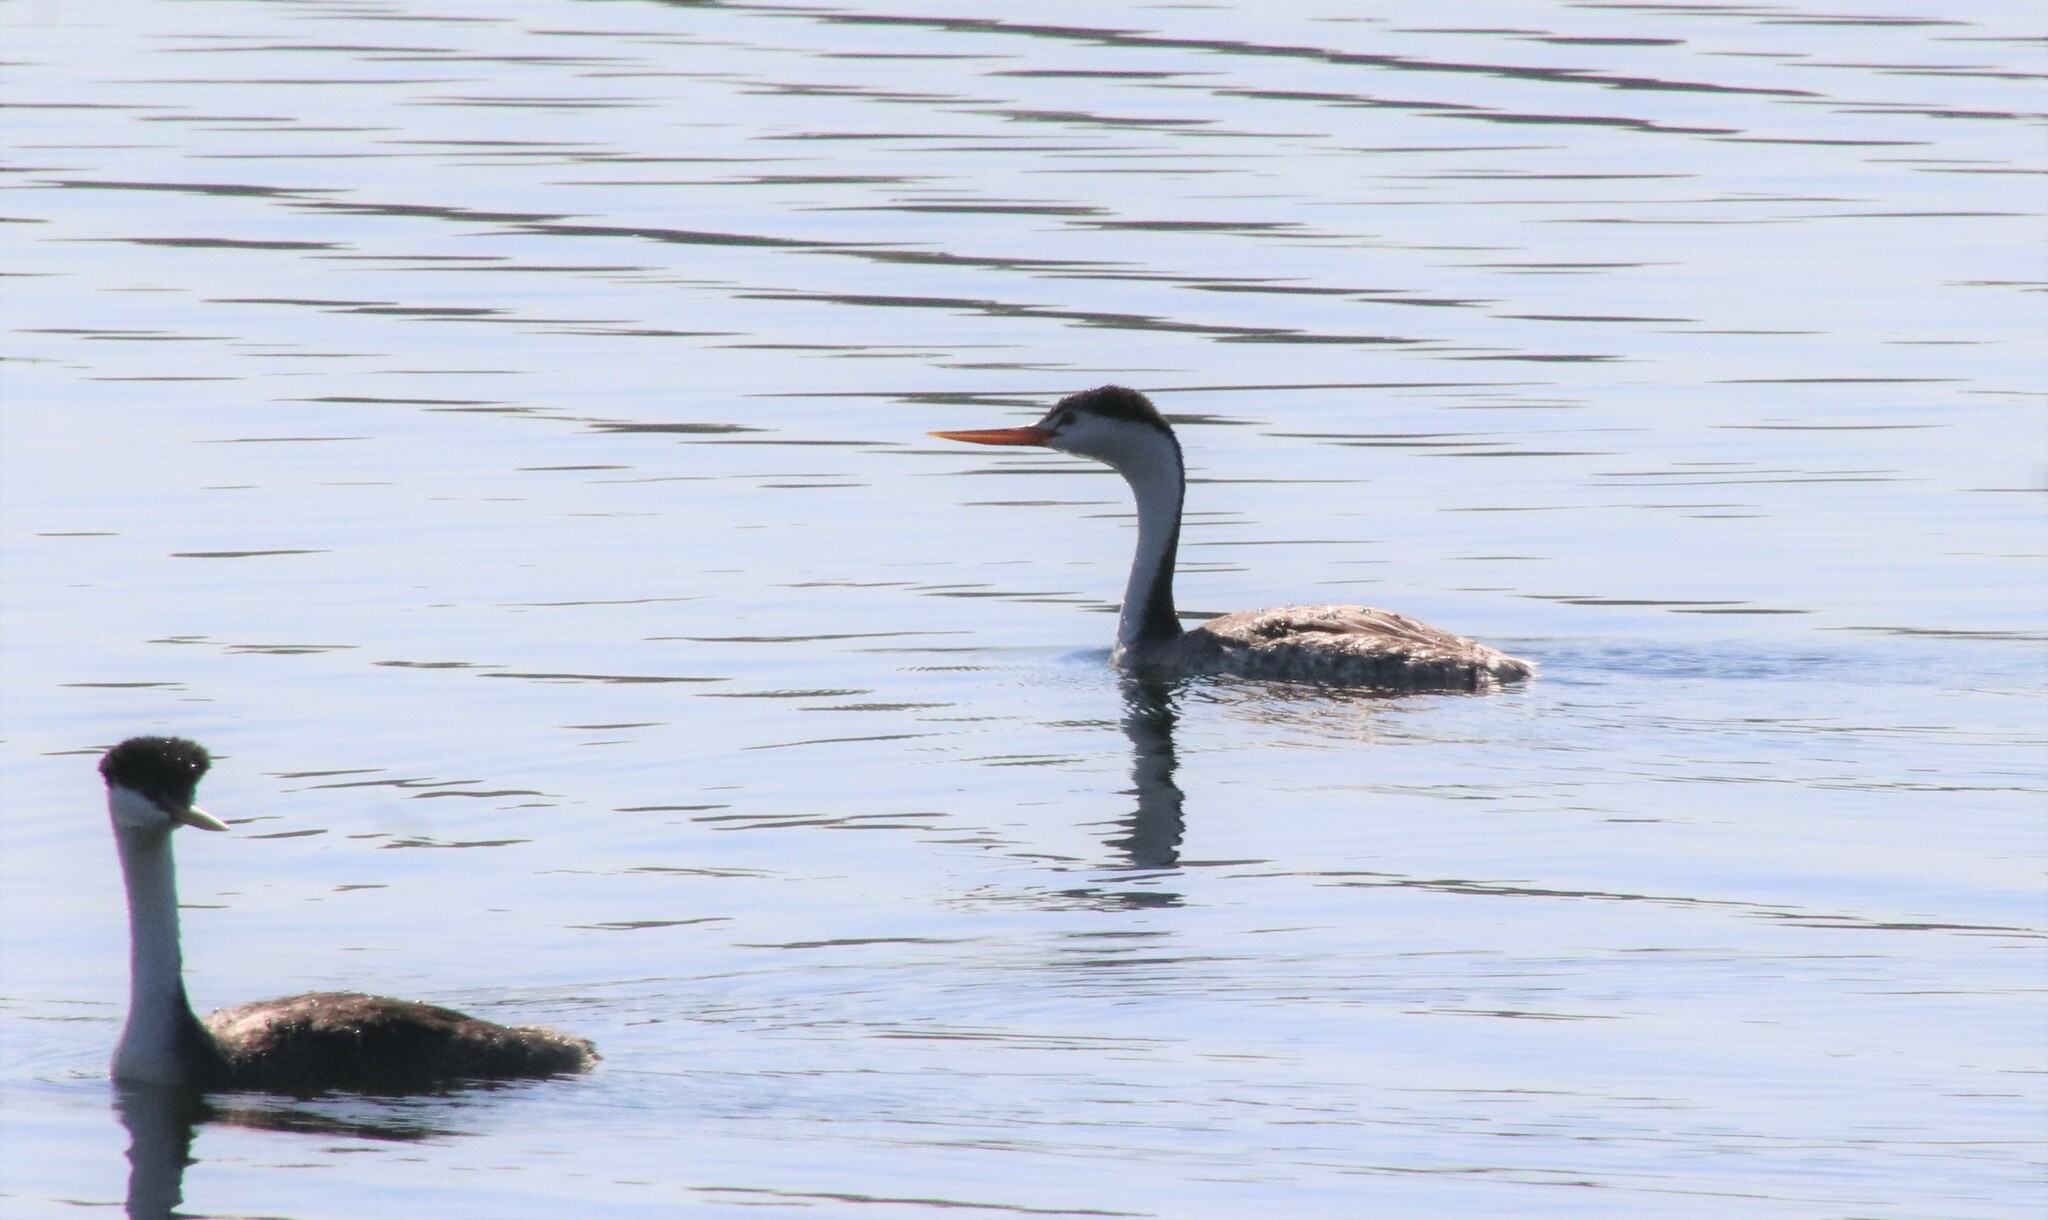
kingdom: Animalia
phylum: Chordata
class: Aves
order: Podicipediformes
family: Podicipedidae
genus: Aechmophorus
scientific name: Aechmophorus clarkii
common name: Clark's grebe
